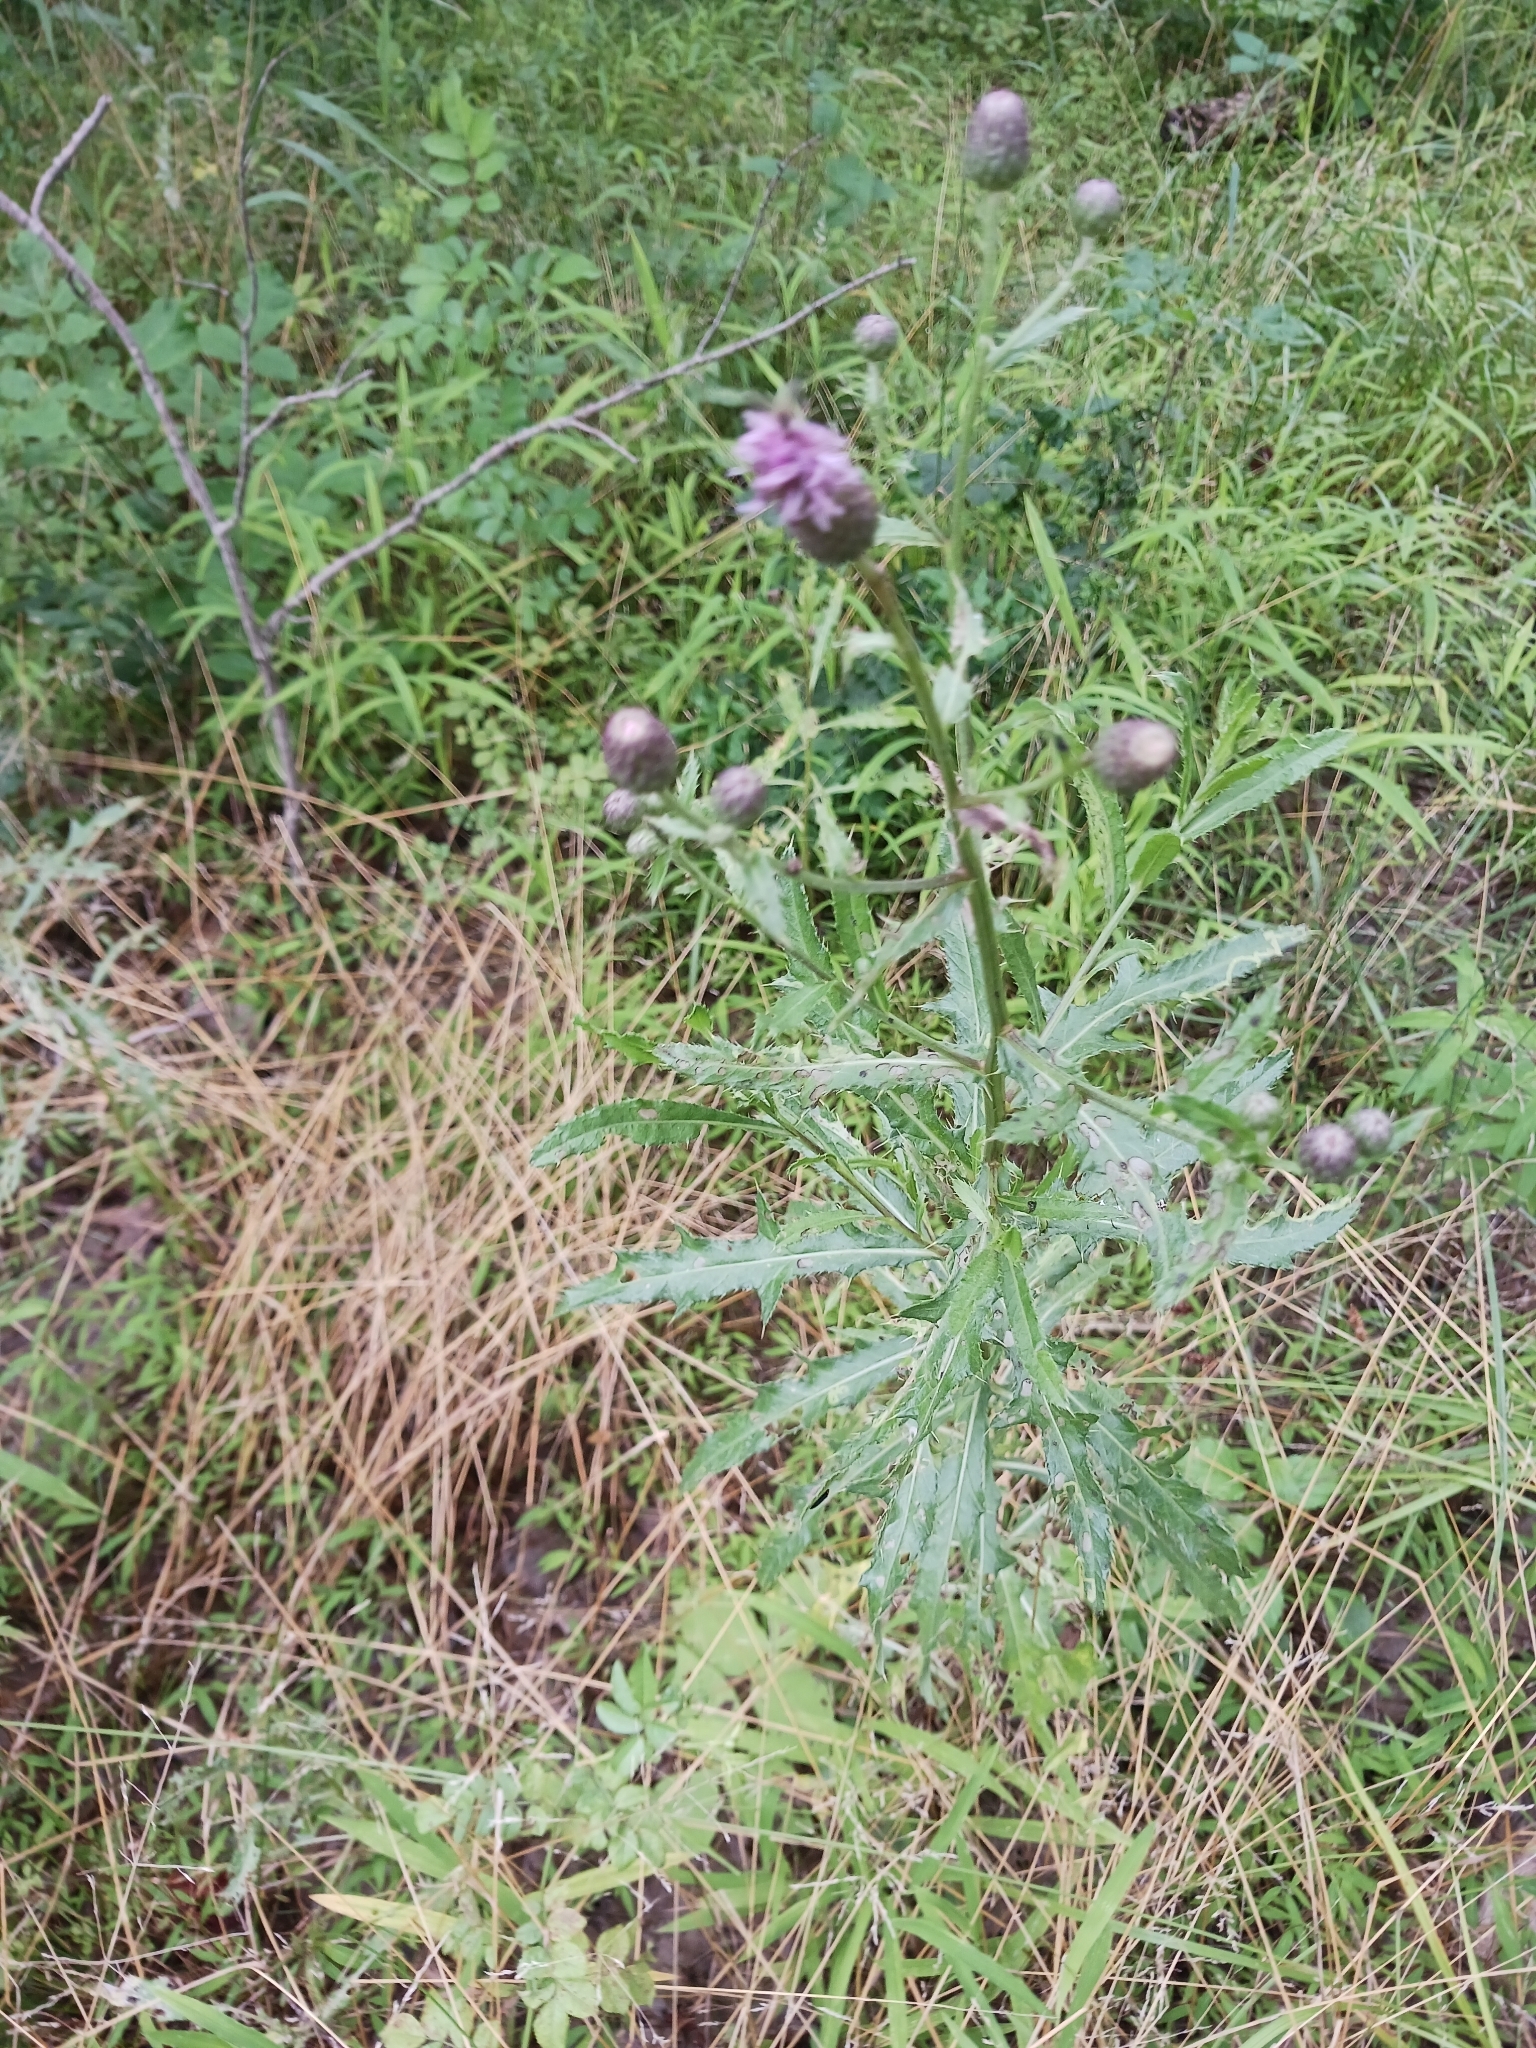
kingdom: Plantae
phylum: Tracheophyta
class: Magnoliopsida
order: Asterales
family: Asteraceae
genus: Cirsium
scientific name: Cirsium arvense
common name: Creeping thistle
